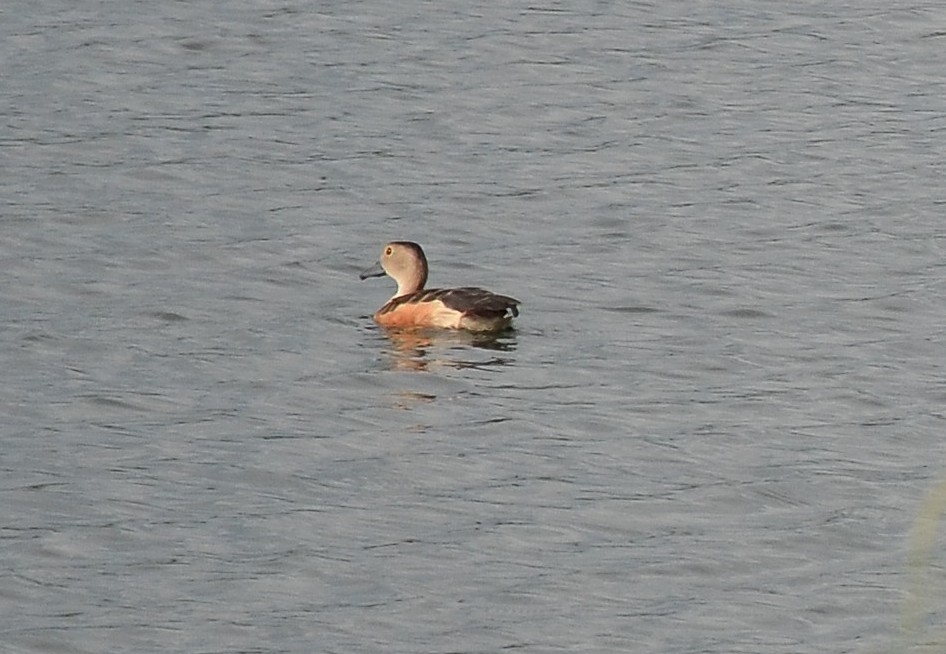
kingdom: Animalia
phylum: Chordata
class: Aves
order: Anseriformes
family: Anatidae
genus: Dendrocygna
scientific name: Dendrocygna javanica
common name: Lesser whistling-duck
